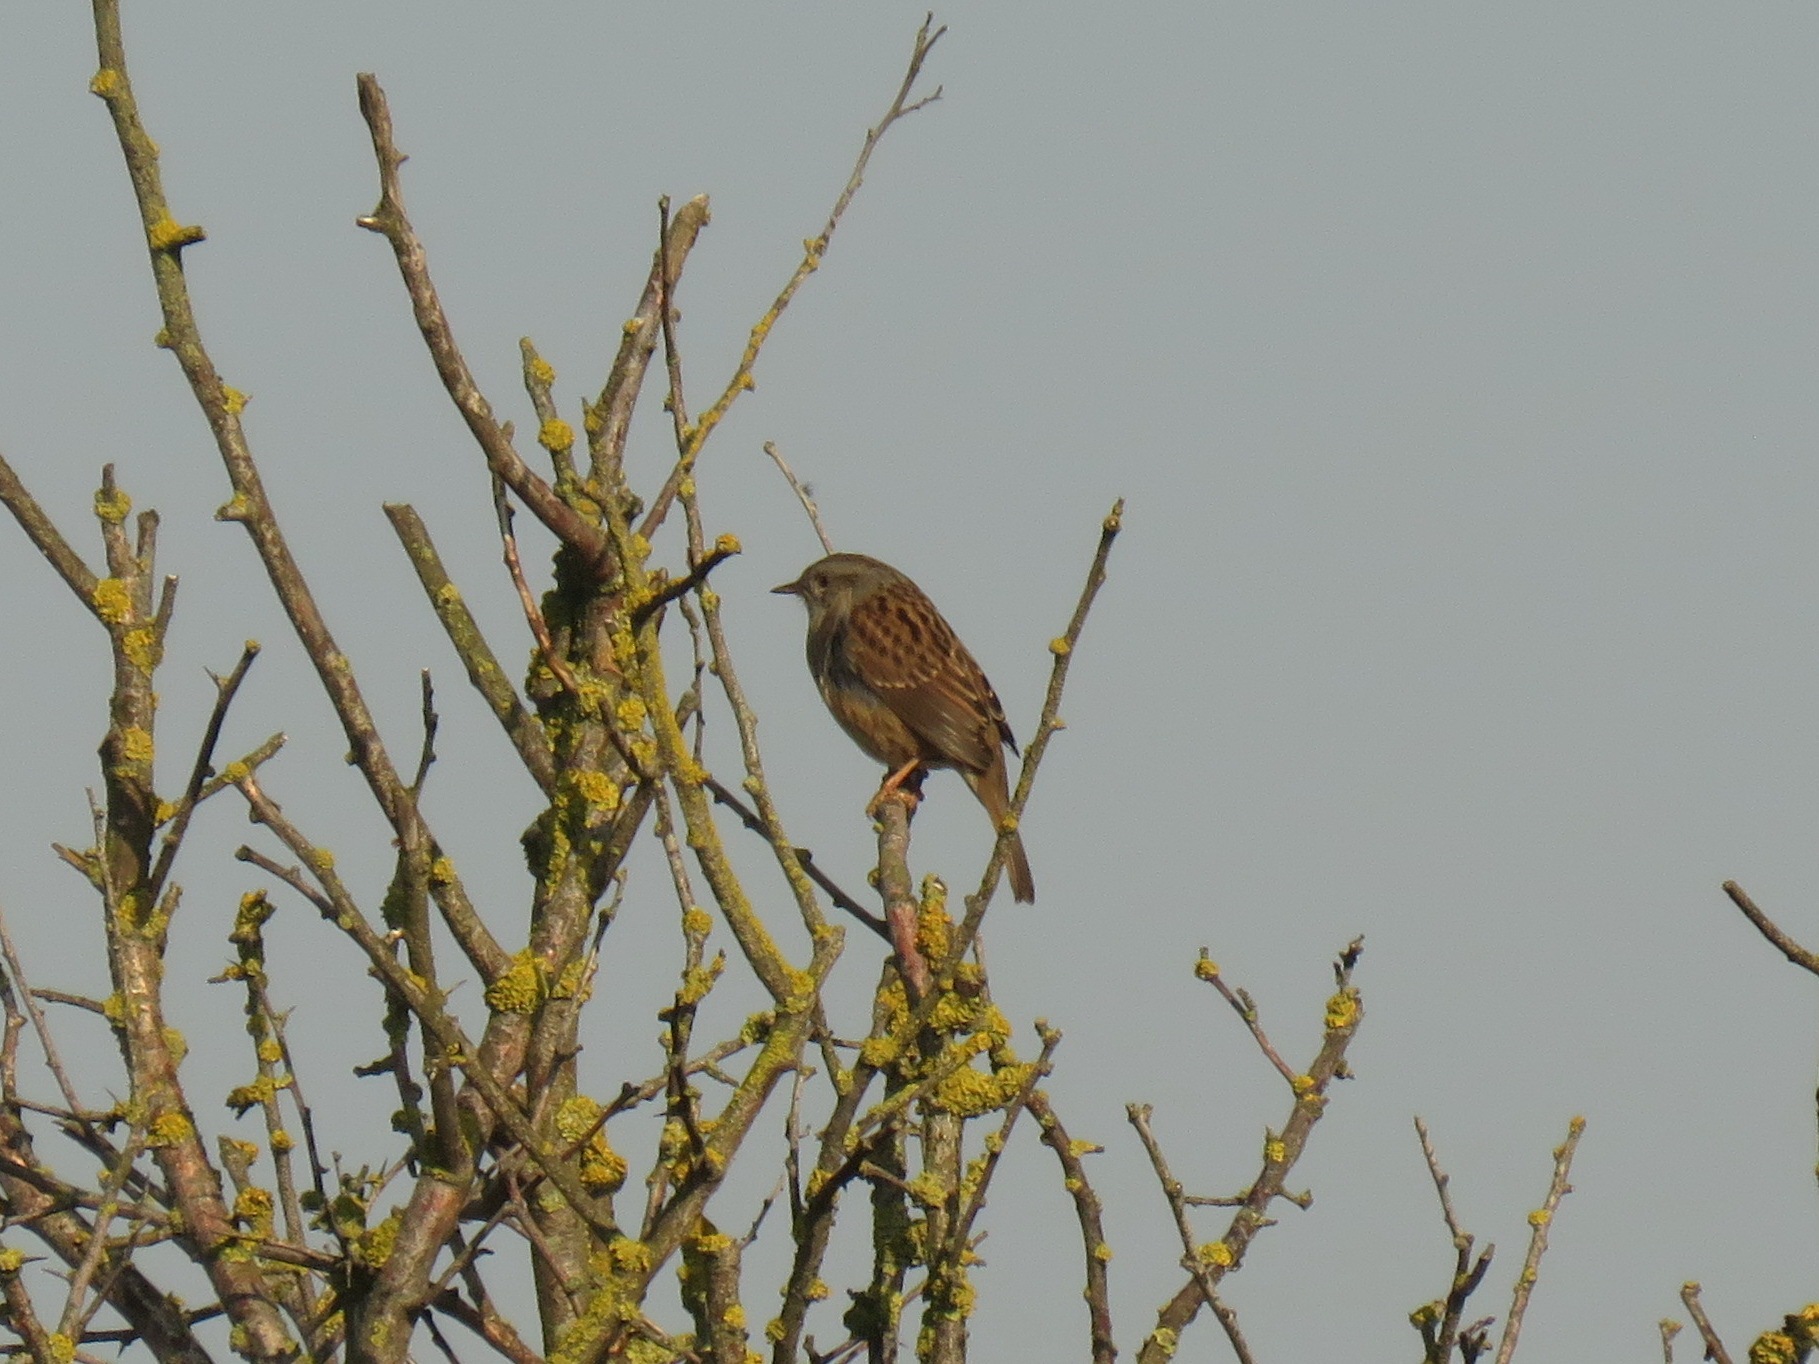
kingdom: Animalia
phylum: Chordata
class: Aves
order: Passeriformes
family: Prunellidae
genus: Prunella
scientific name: Prunella modularis
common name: Dunnock
